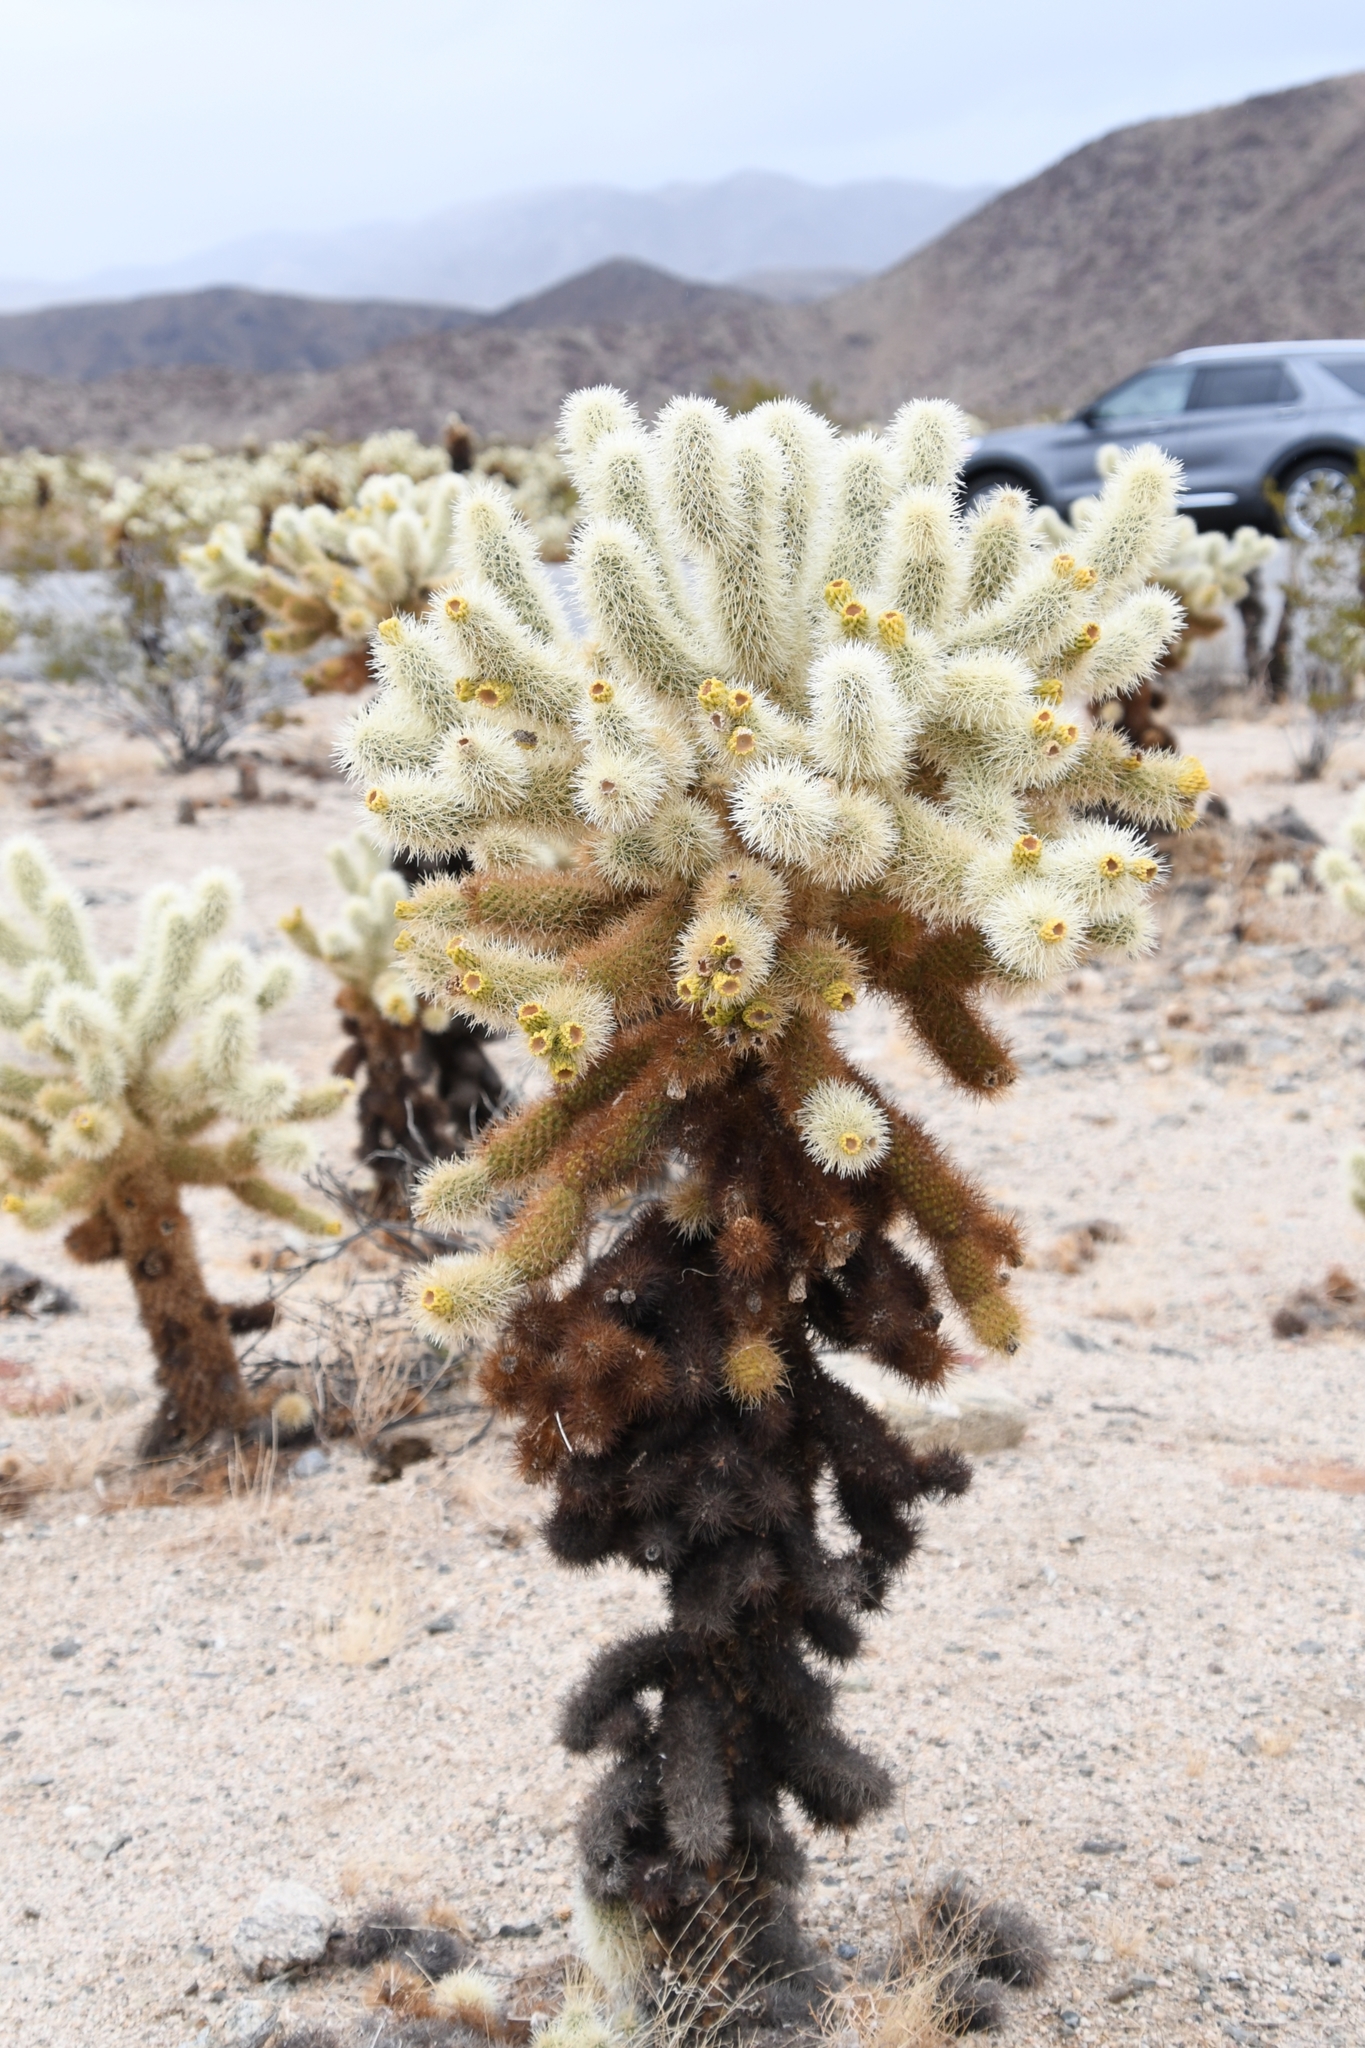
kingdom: Plantae
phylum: Tracheophyta
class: Magnoliopsida
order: Caryophyllales
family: Cactaceae
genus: Cylindropuntia
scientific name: Cylindropuntia fosbergii
